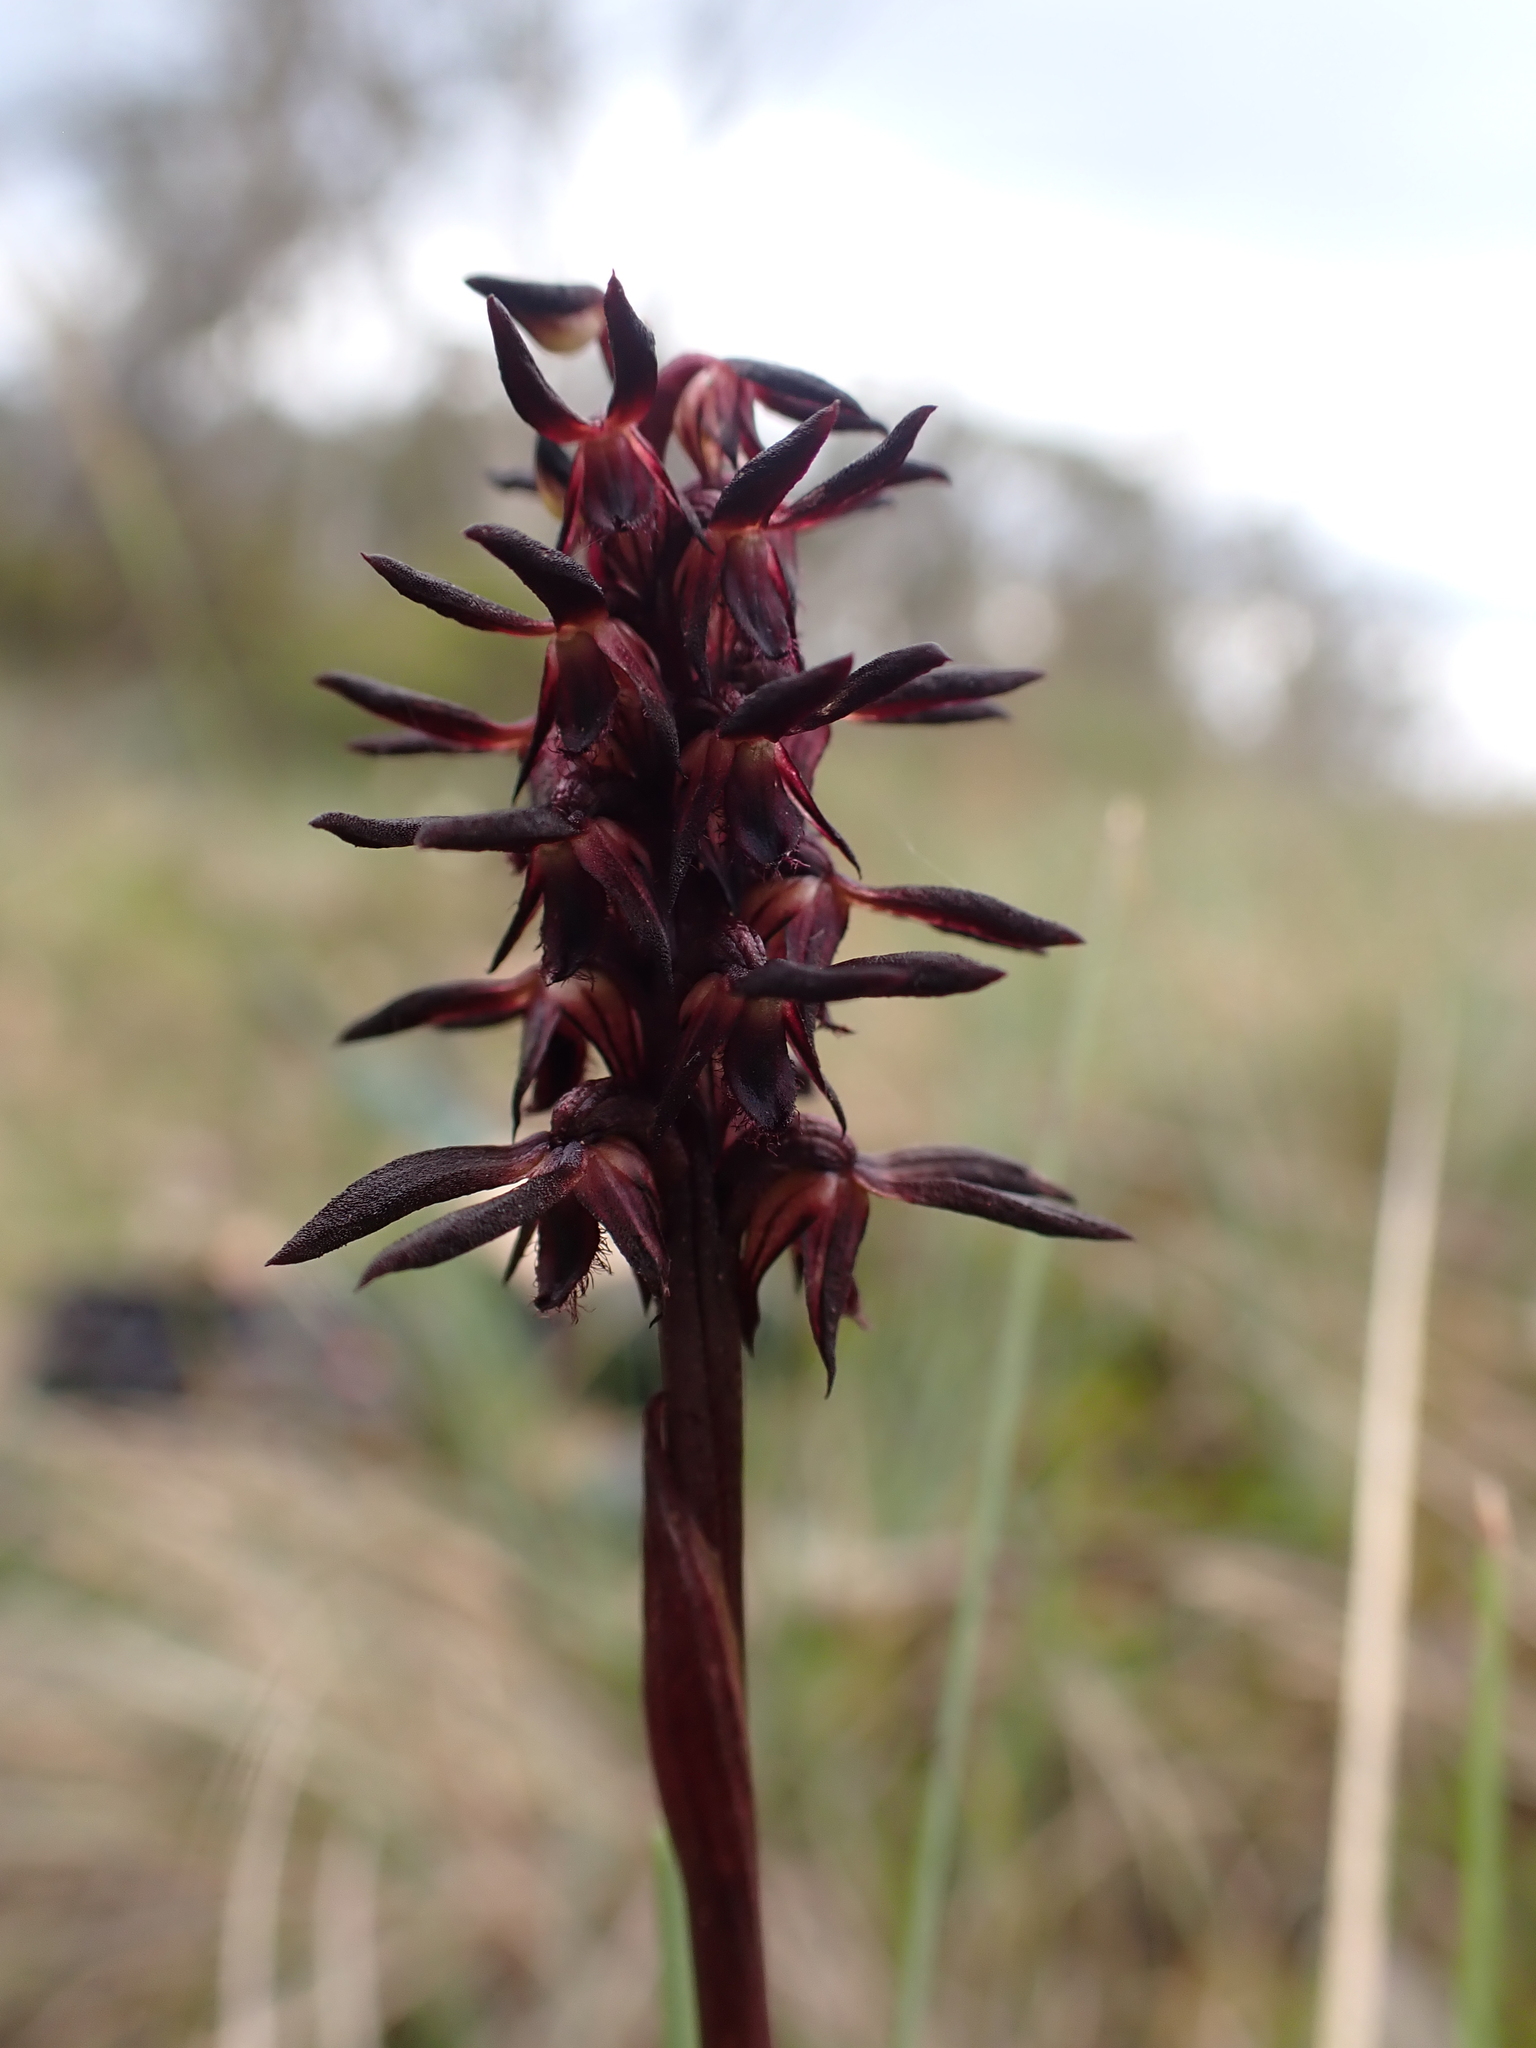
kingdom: Plantae
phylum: Tracheophyta
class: Liliopsida
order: Asparagales
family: Orchidaceae
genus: Genoplesium
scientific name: Genoplesium arrectum
